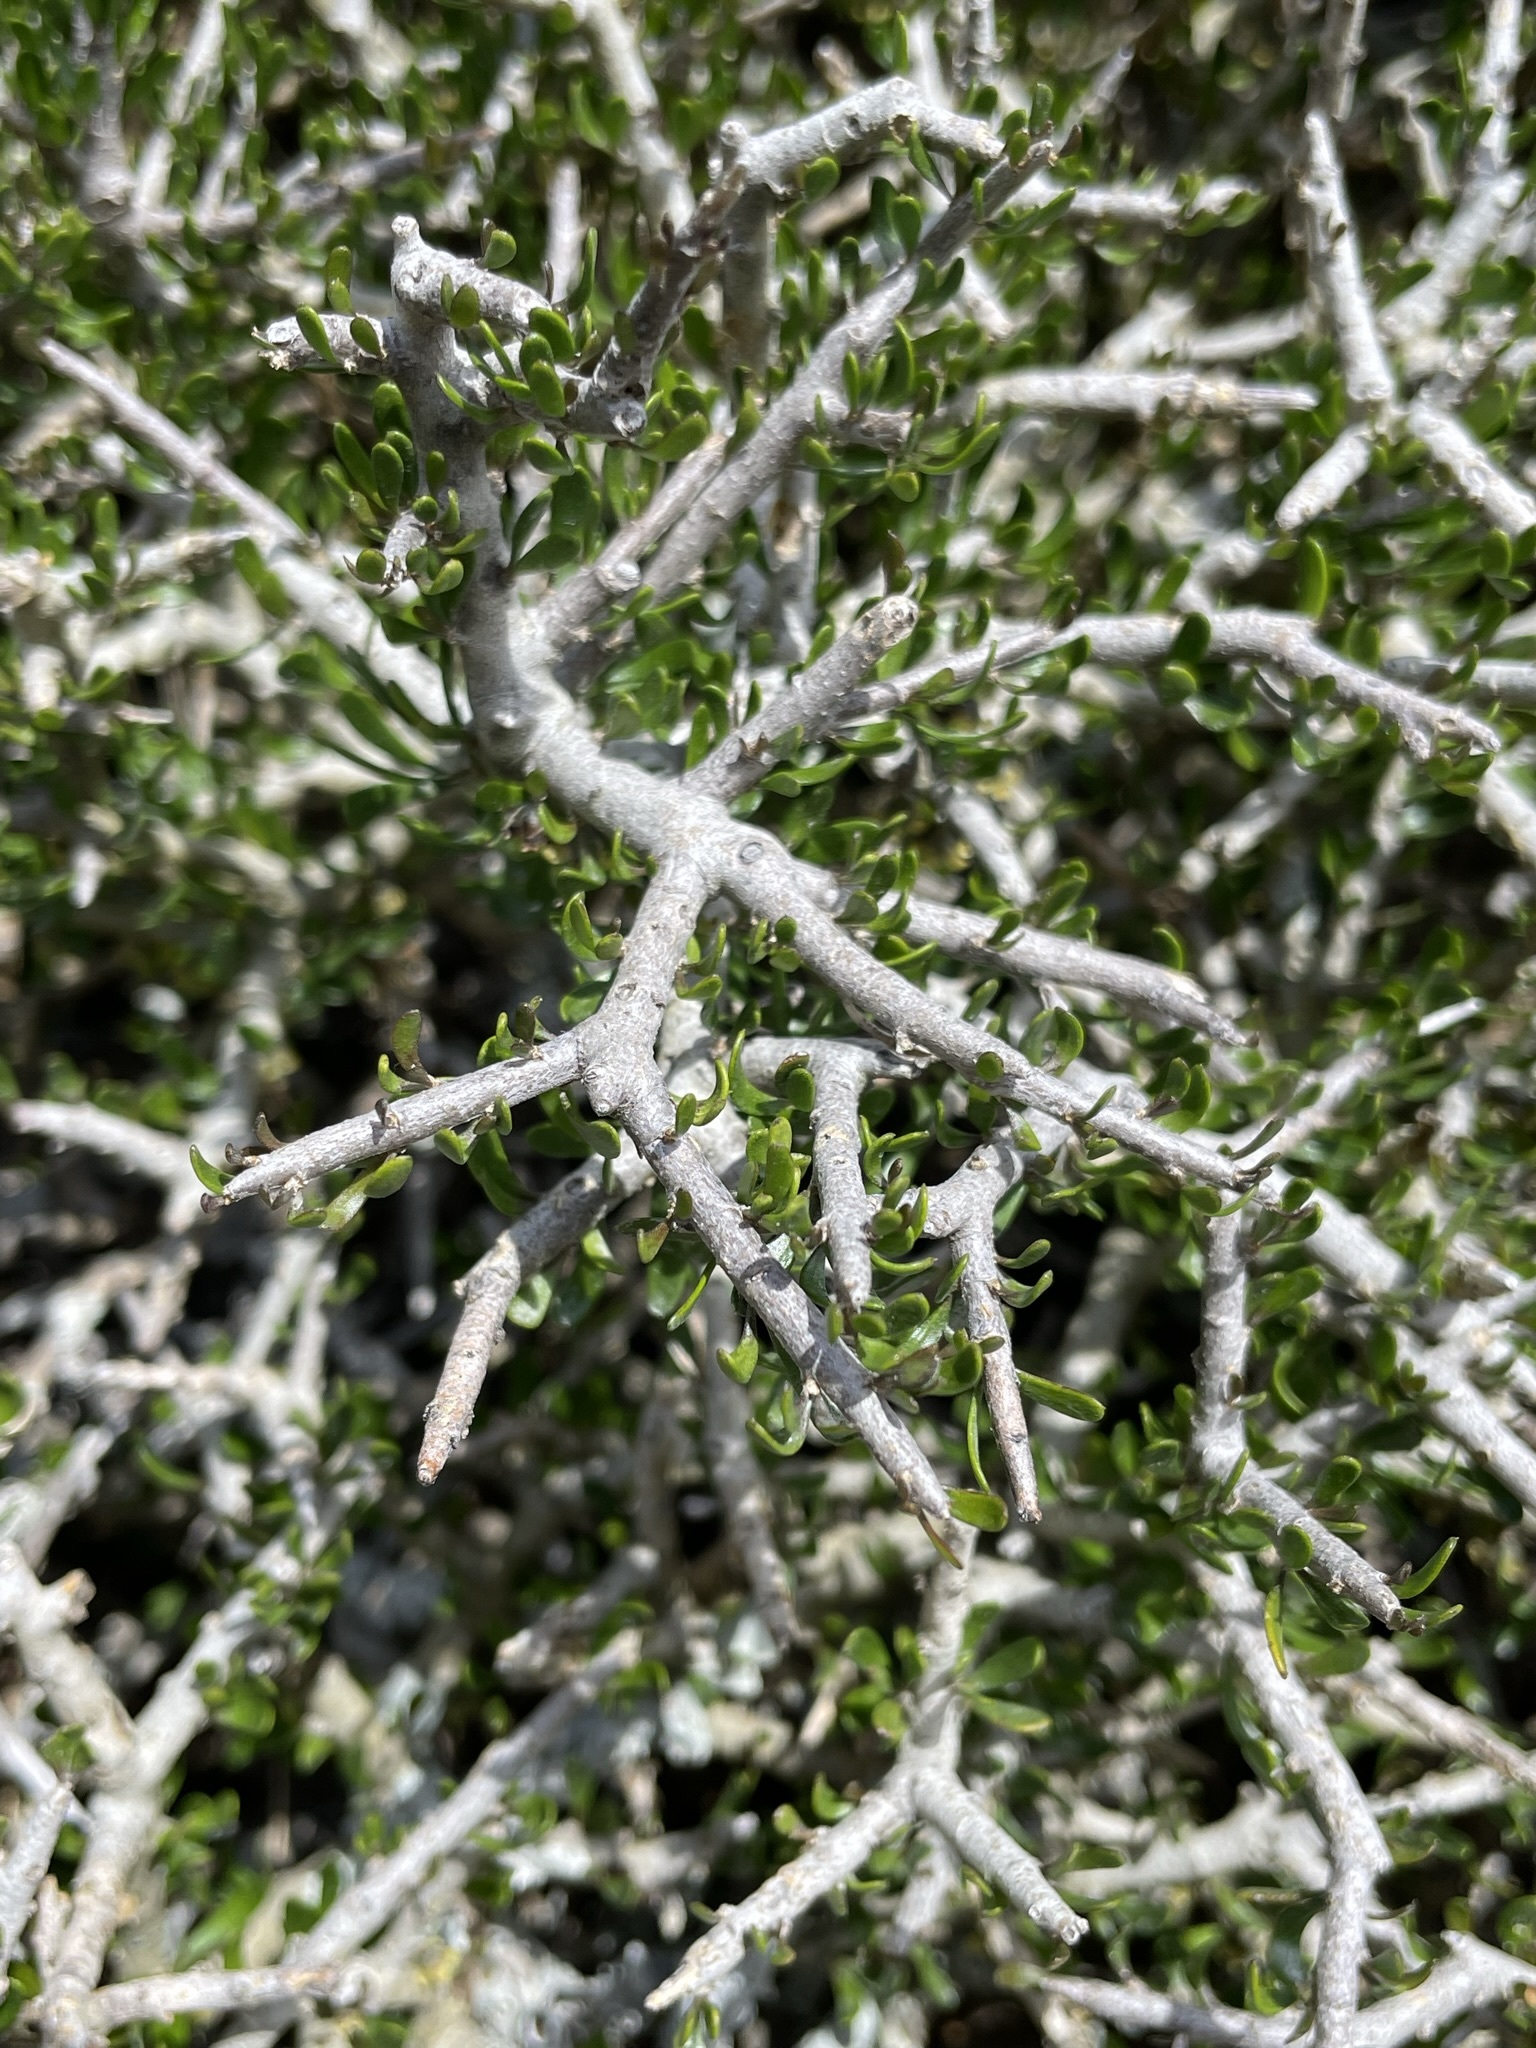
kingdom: Plantae
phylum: Tracheophyta
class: Magnoliopsida
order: Malpighiales
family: Violaceae
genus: Melicytus
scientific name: Melicytus alpinus
